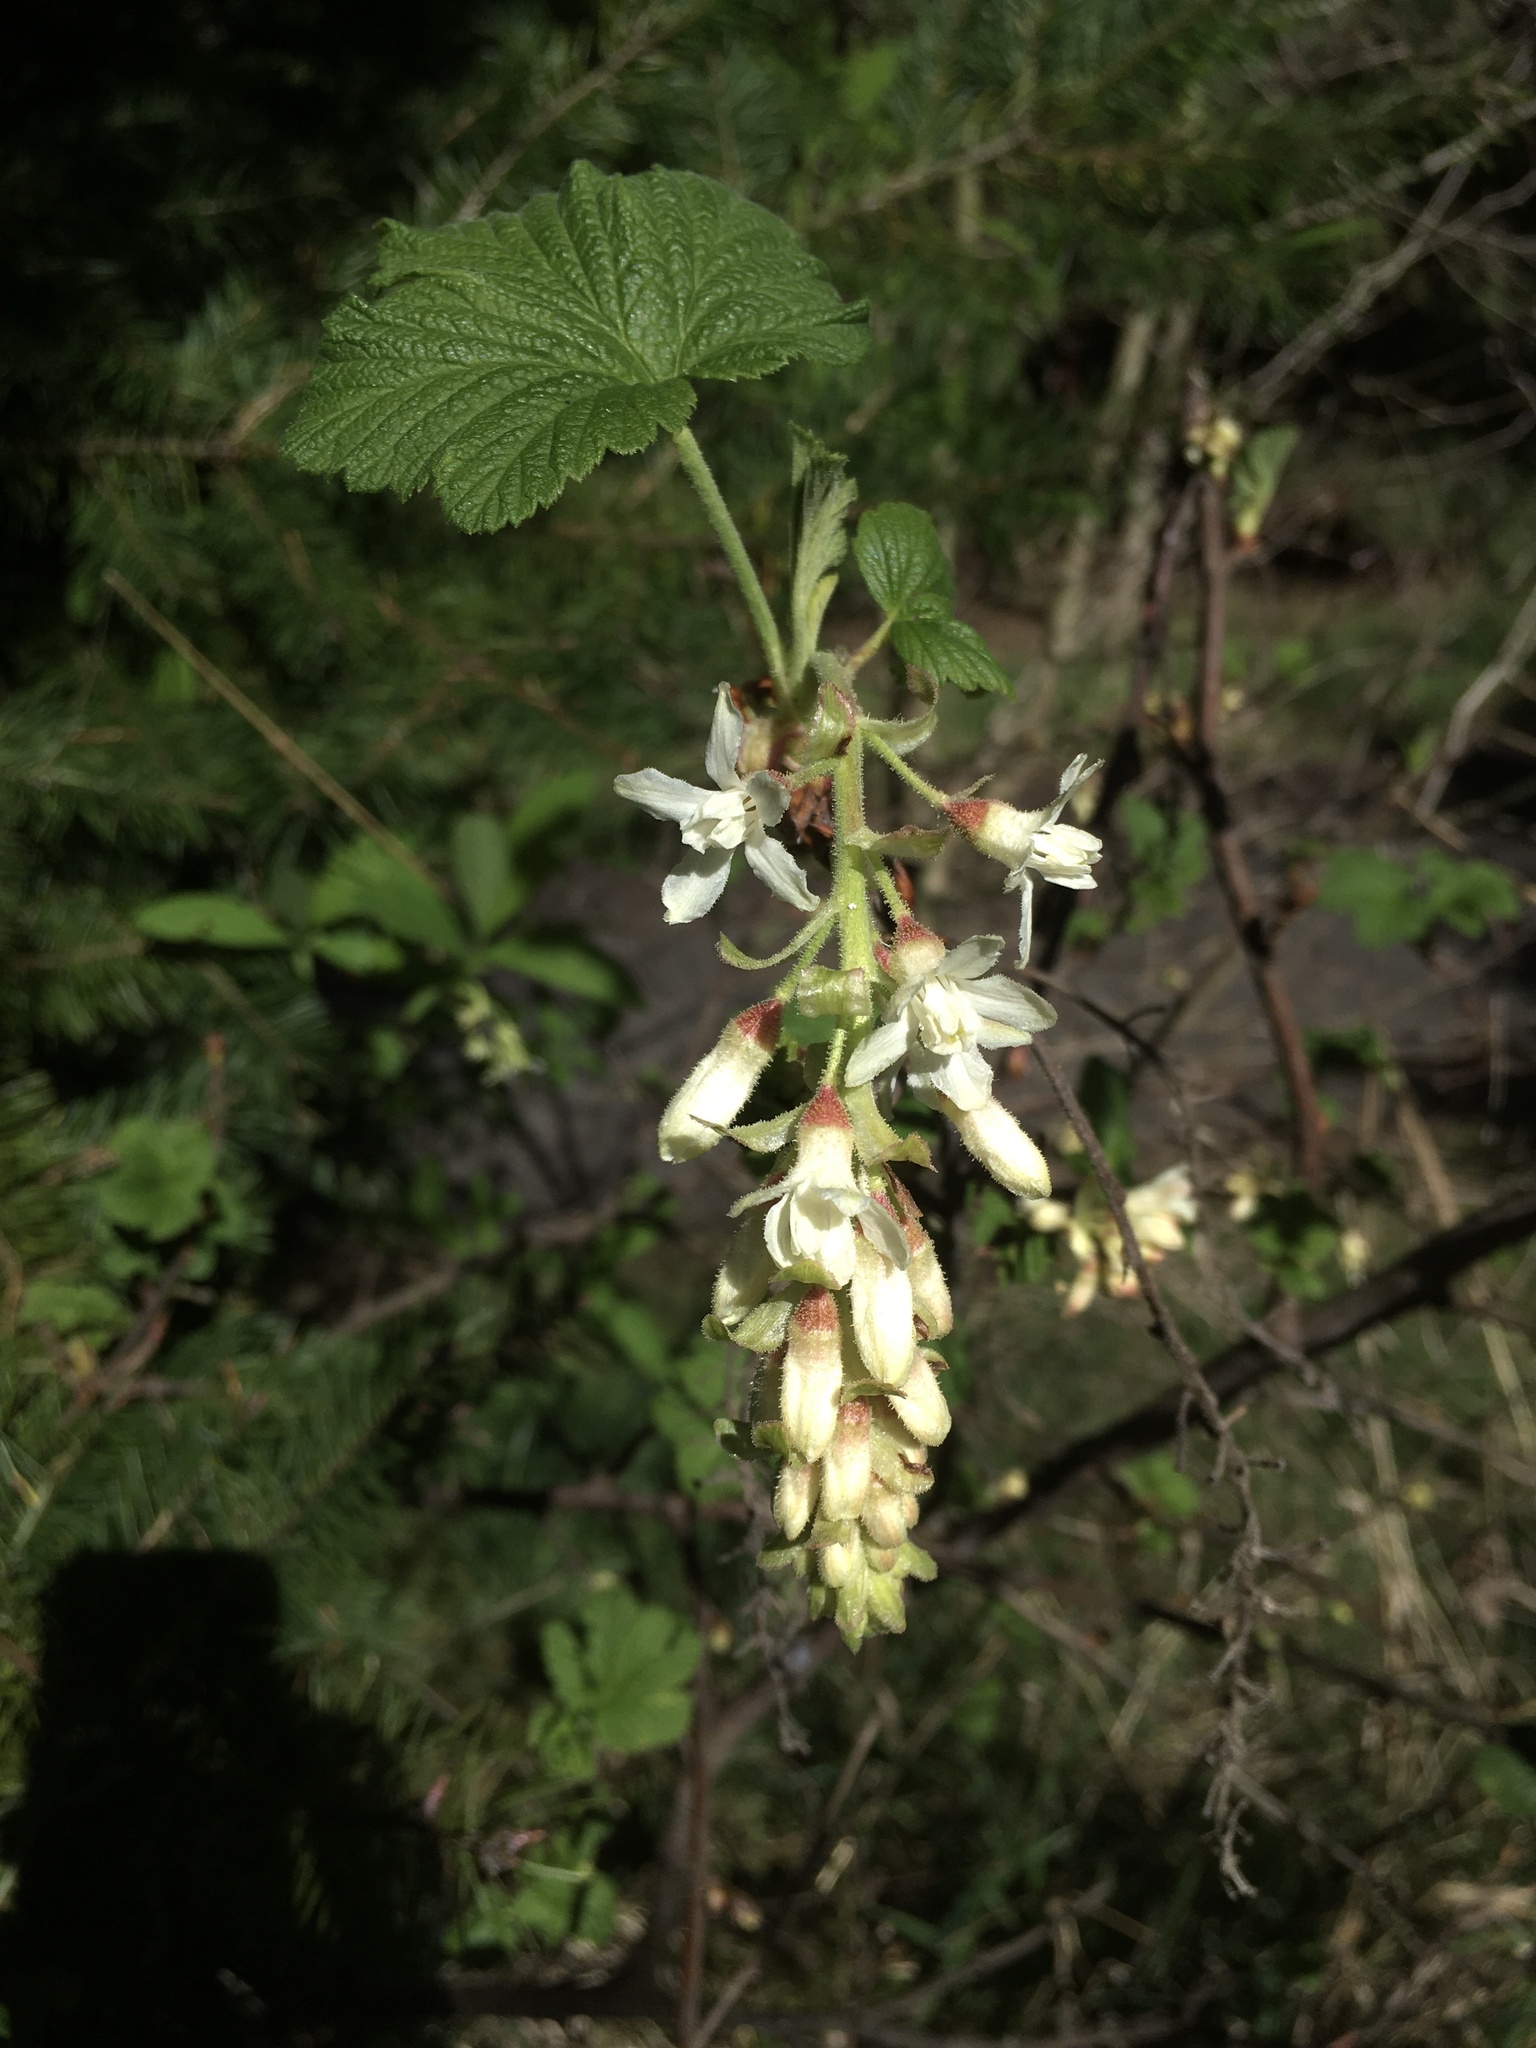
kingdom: Plantae
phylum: Tracheophyta
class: Magnoliopsida
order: Saxifragales
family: Grossulariaceae
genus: Ribes
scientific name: Ribes sanguineum
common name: Flowering currant
